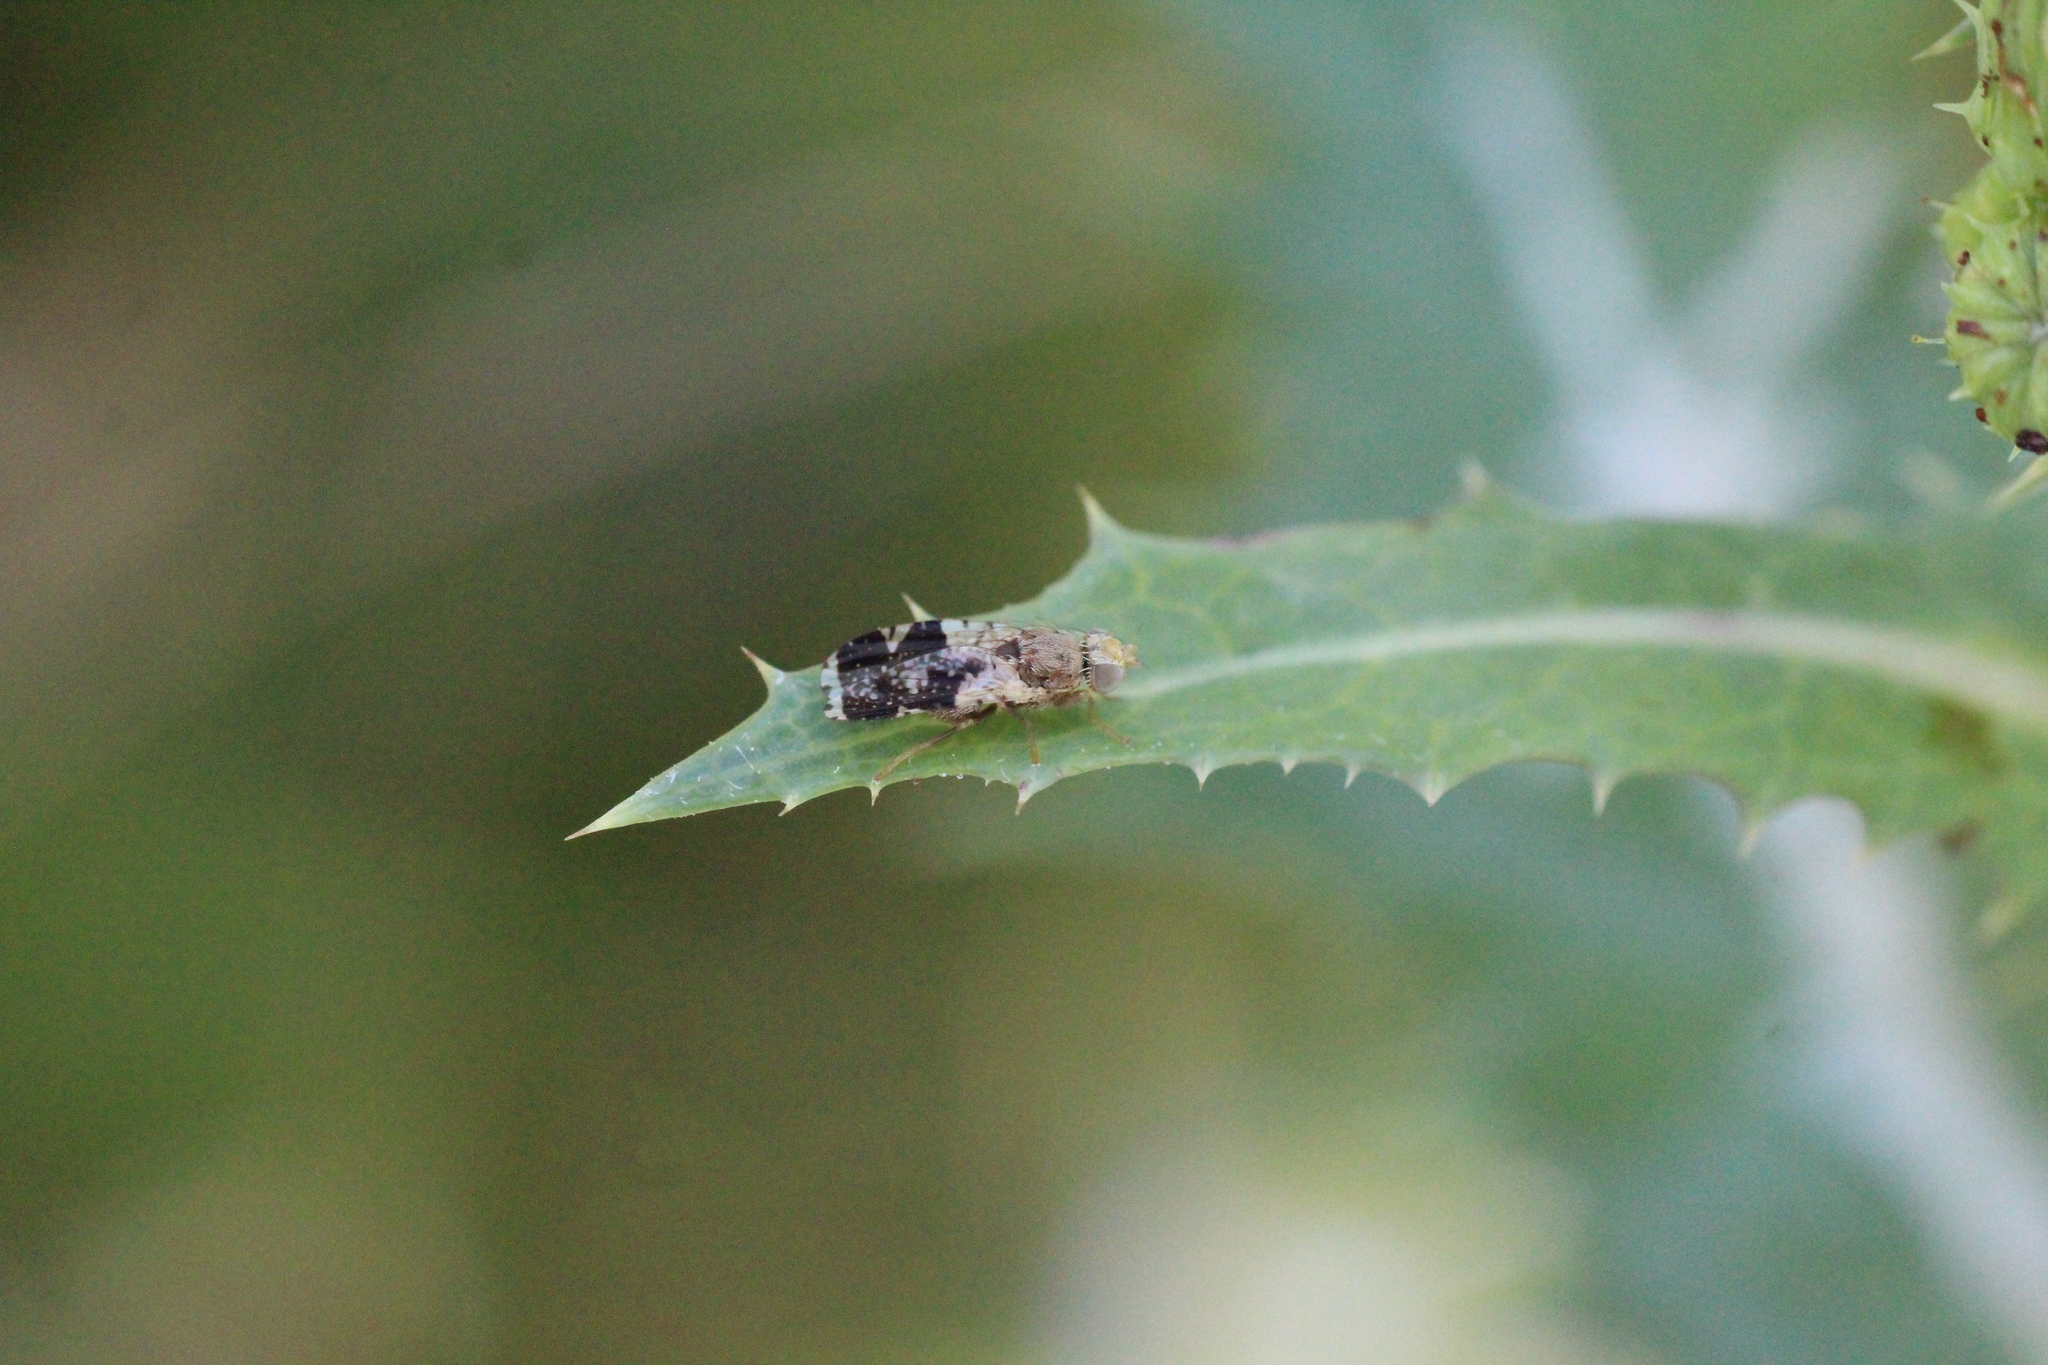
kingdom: Animalia
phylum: Arthropoda
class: Insecta
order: Diptera
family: Tephritidae
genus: Tephritis
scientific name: Tephritis formosa
